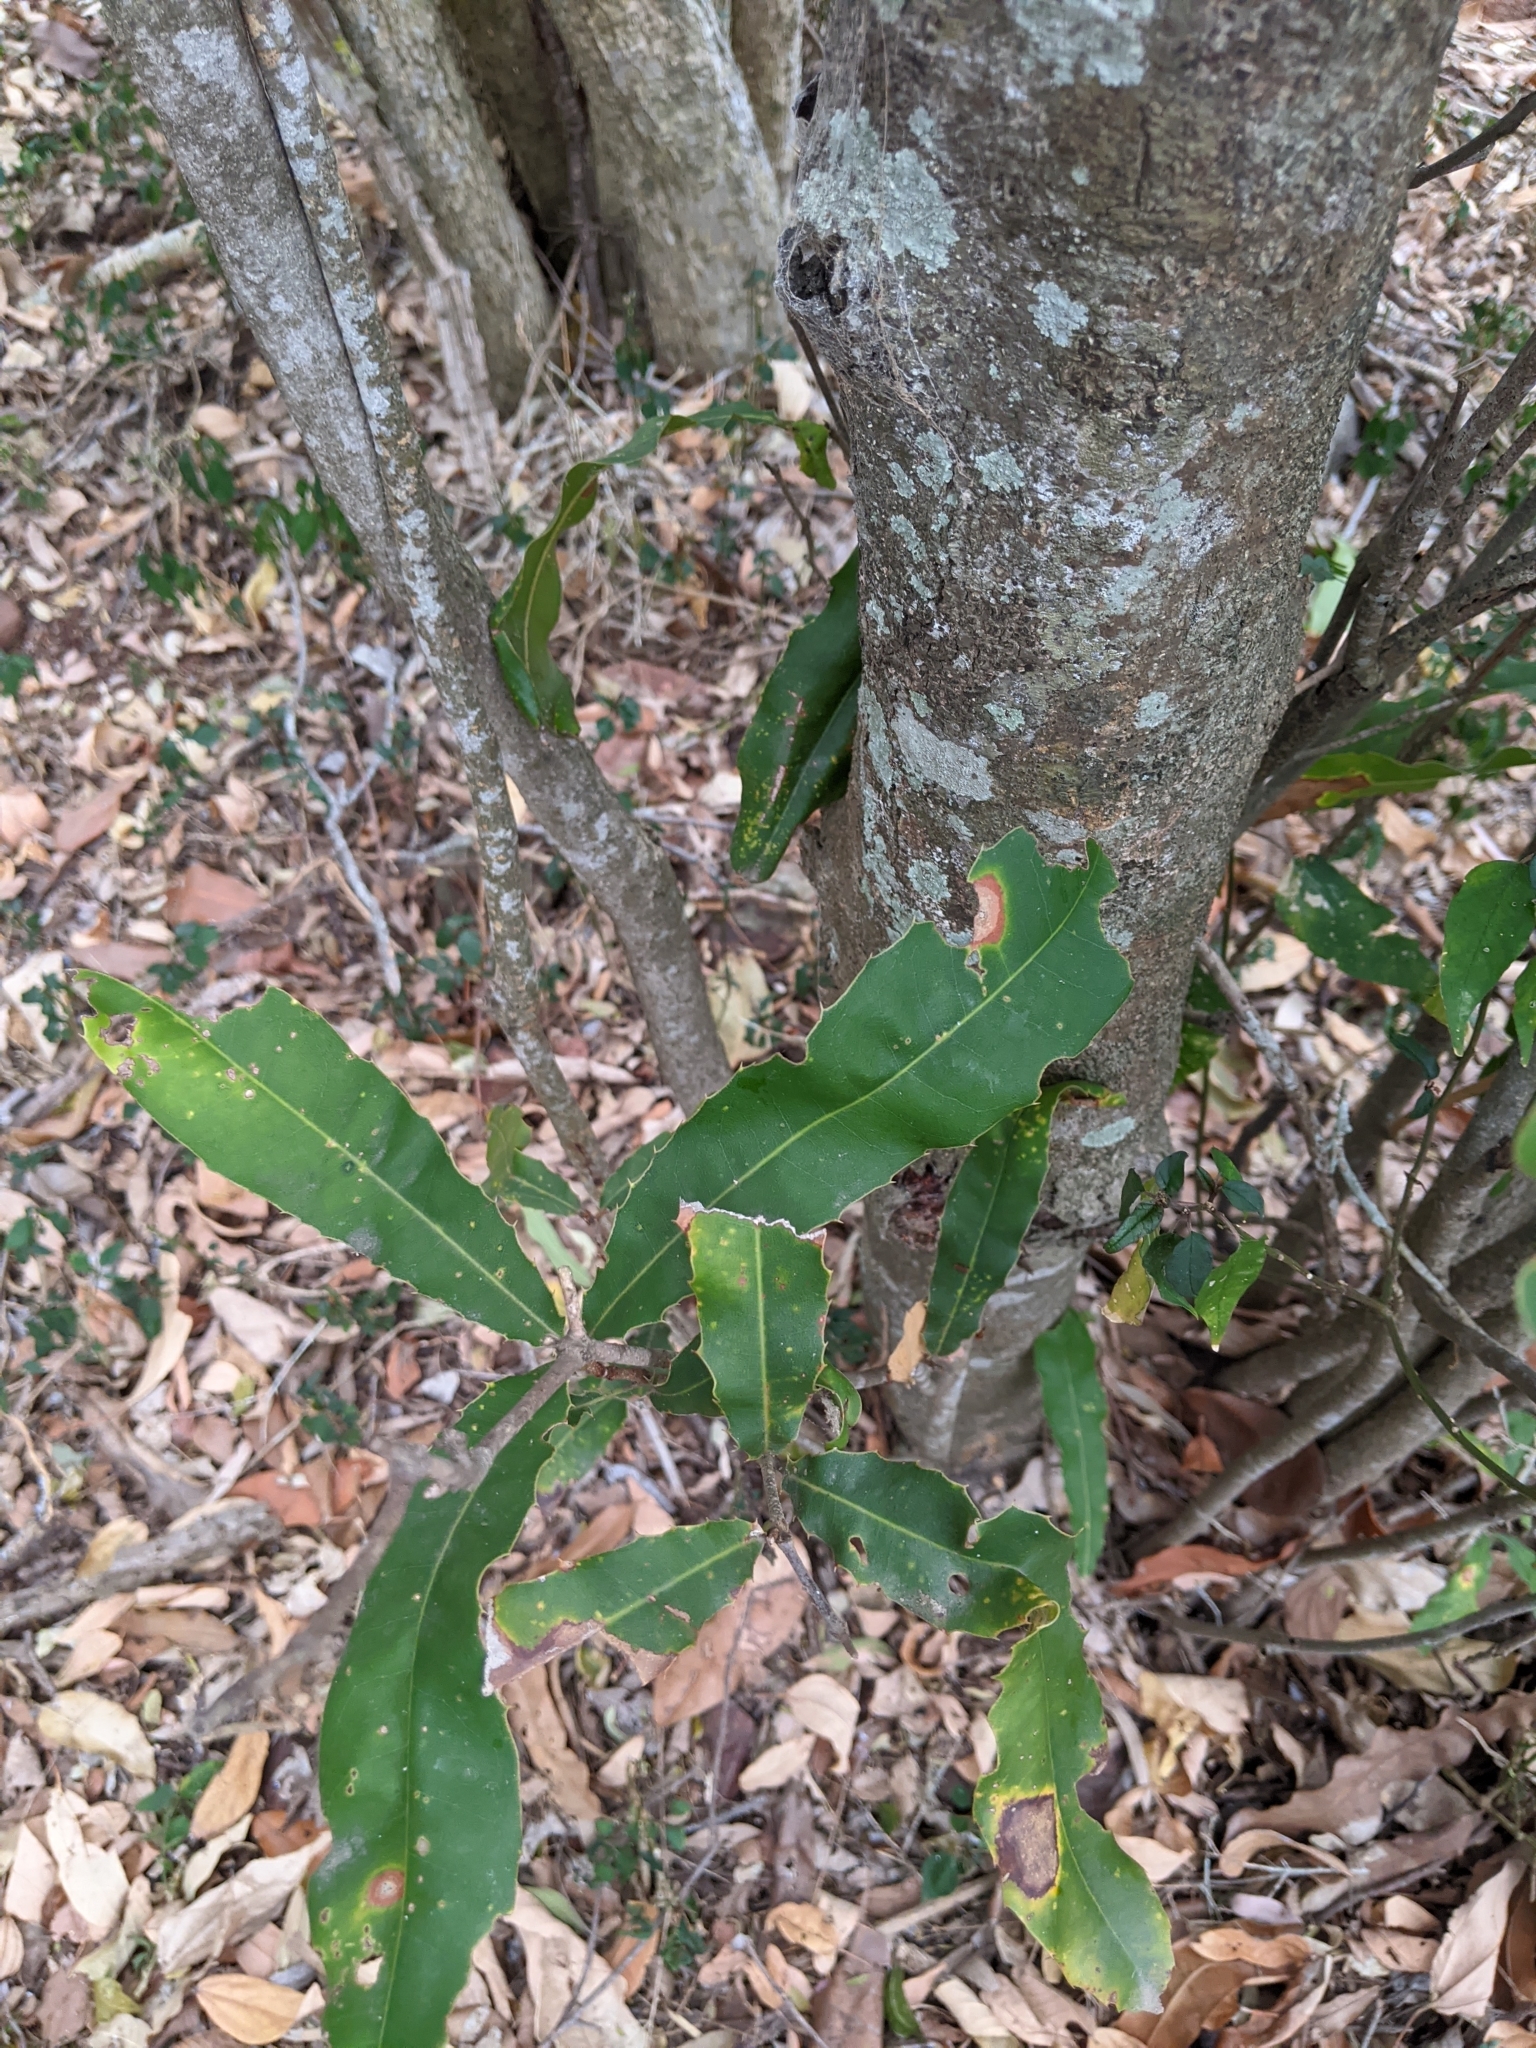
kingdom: Plantae
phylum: Tracheophyta
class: Magnoliopsida
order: Proteales
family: Proteaceae
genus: Macadamia
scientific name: Macadamia integrifolia
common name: Macadamia
